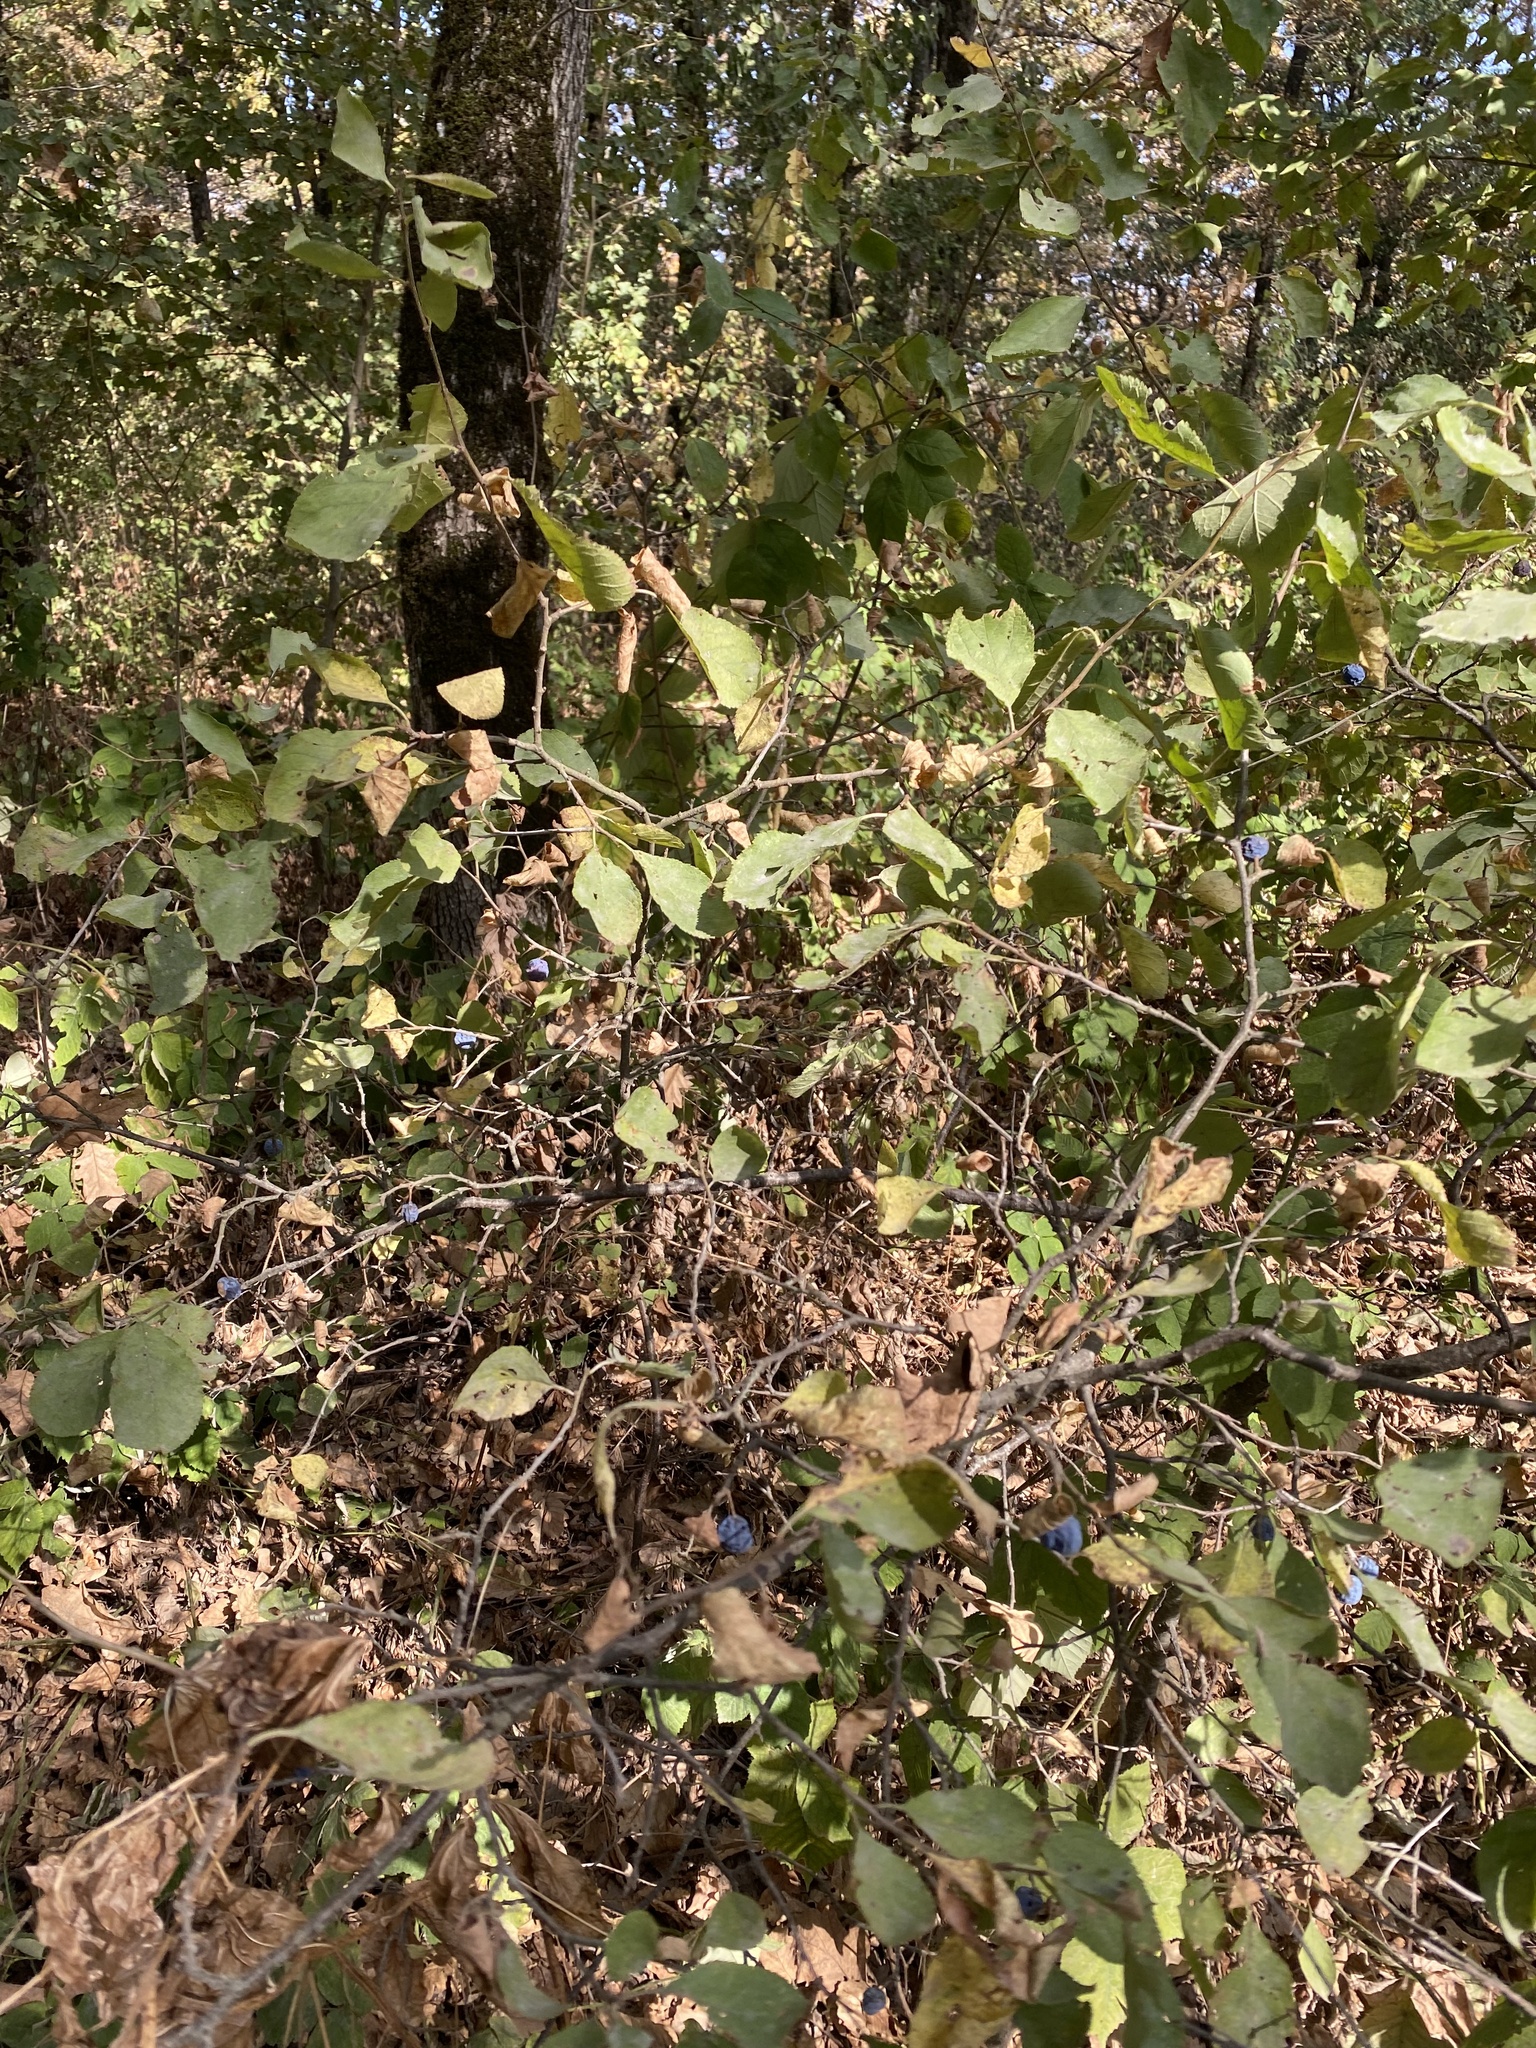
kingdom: Plantae
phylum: Tracheophyta
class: Magnoliopsida
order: Rosales
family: Rosaceae
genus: Prunus
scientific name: Prunus spinosa
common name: Blackthorn
